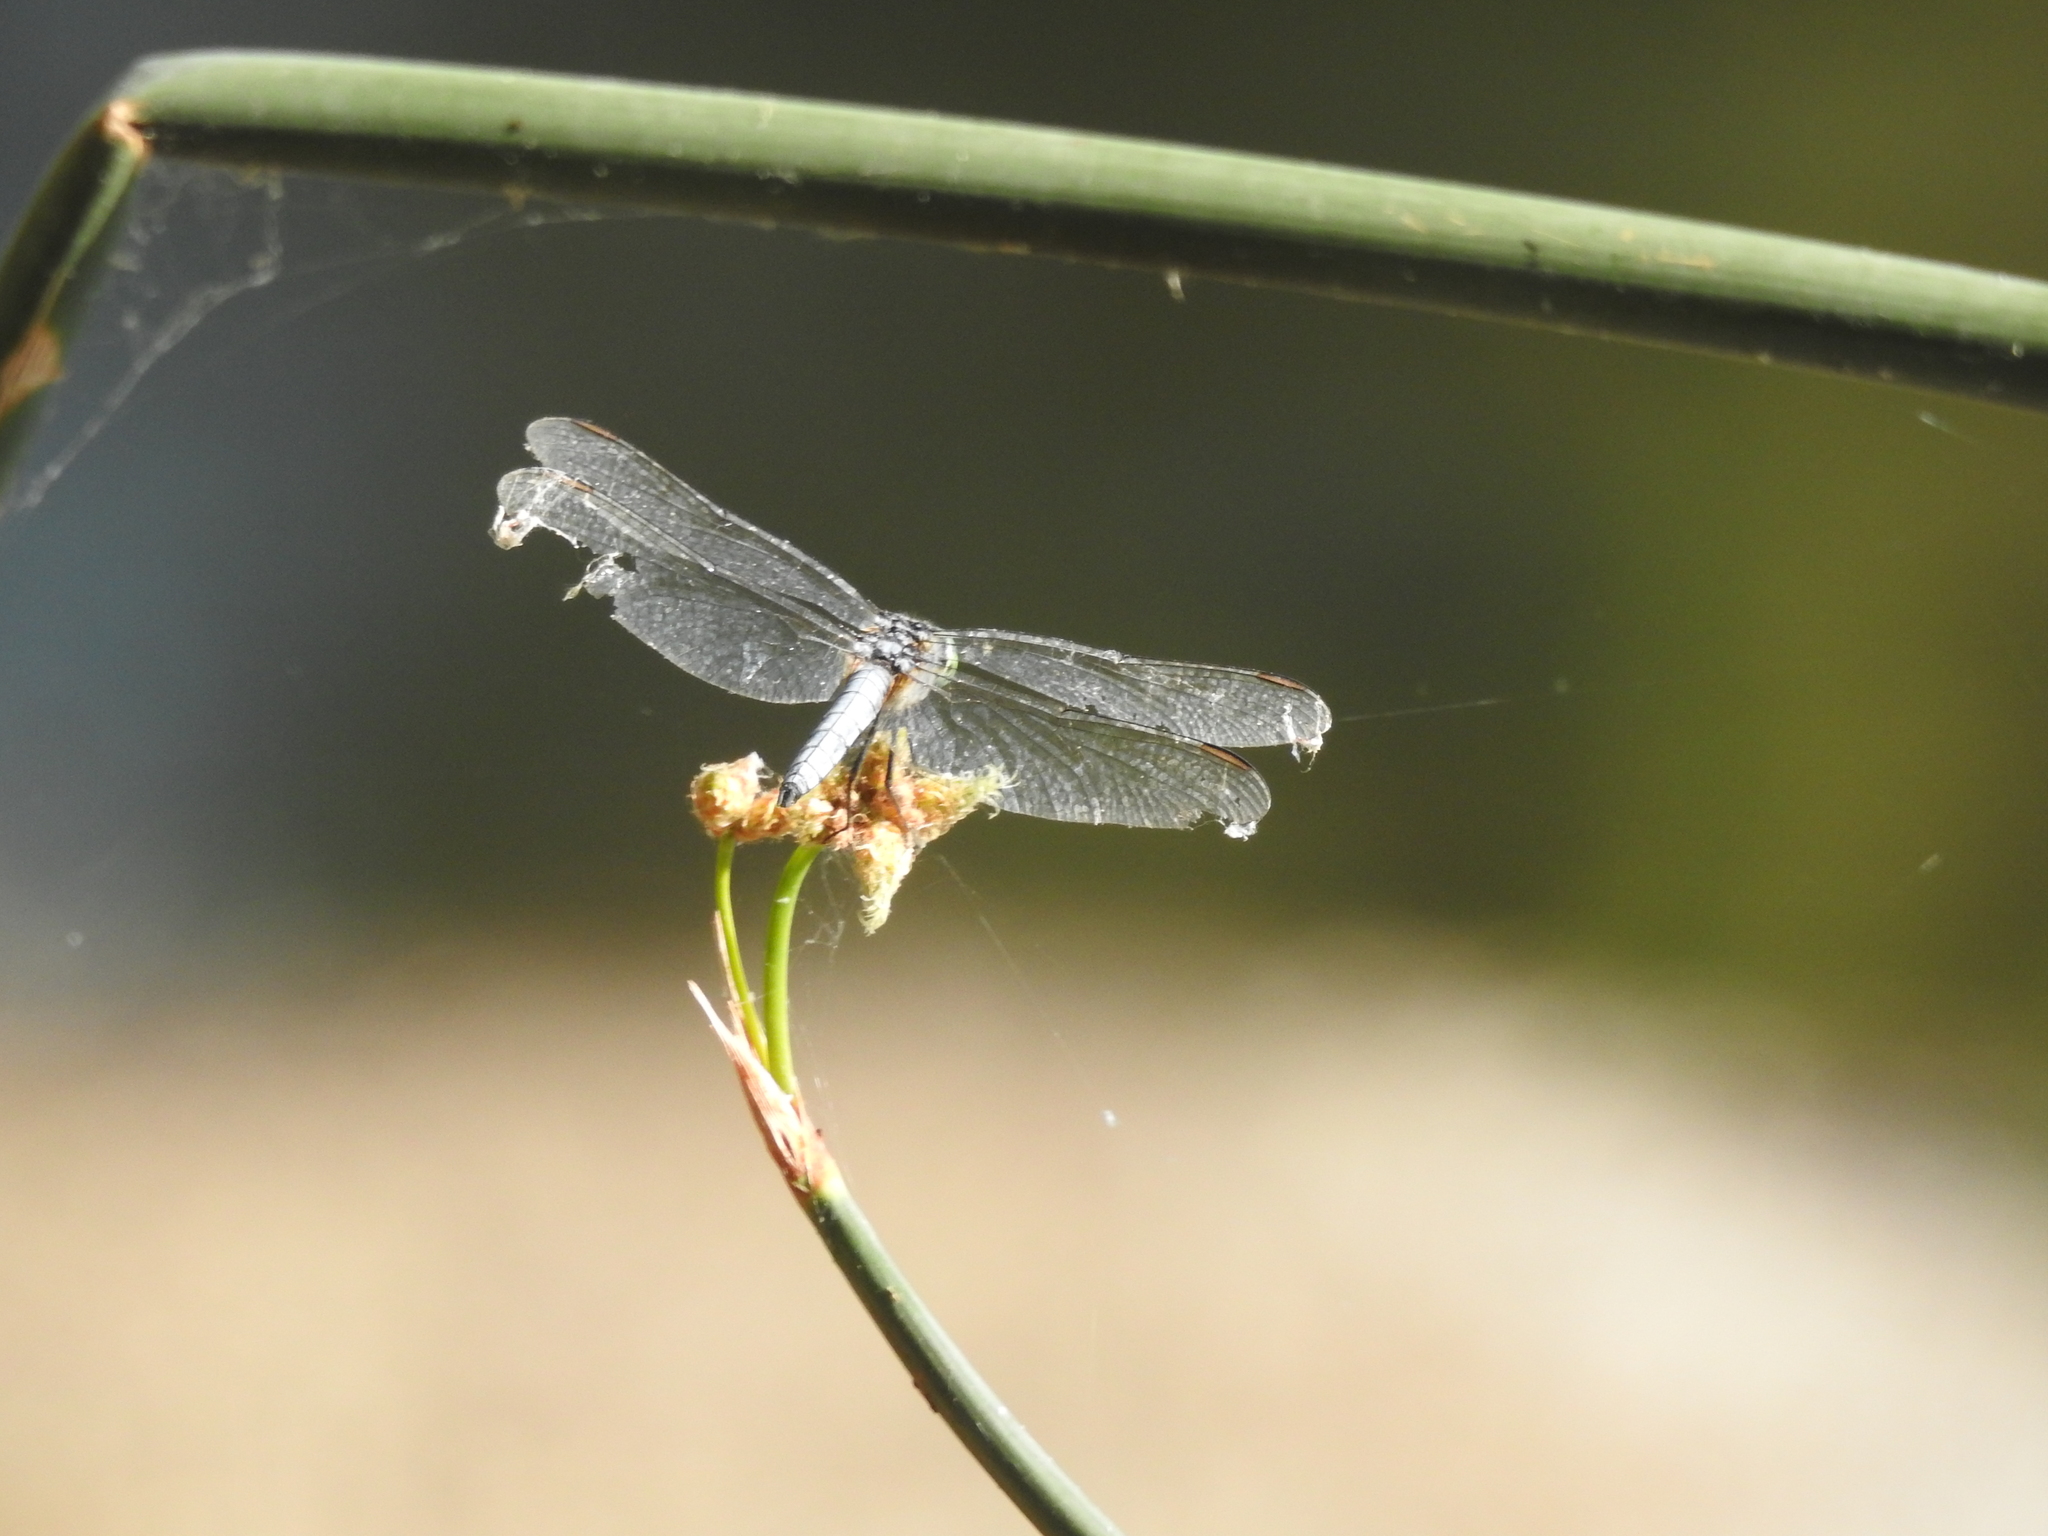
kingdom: Animalia
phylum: Arthropoda
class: Insecta
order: Odonata
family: Libellulidae
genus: Pachydiplax
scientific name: Pachydiplax longipennis
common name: Blue dasher
